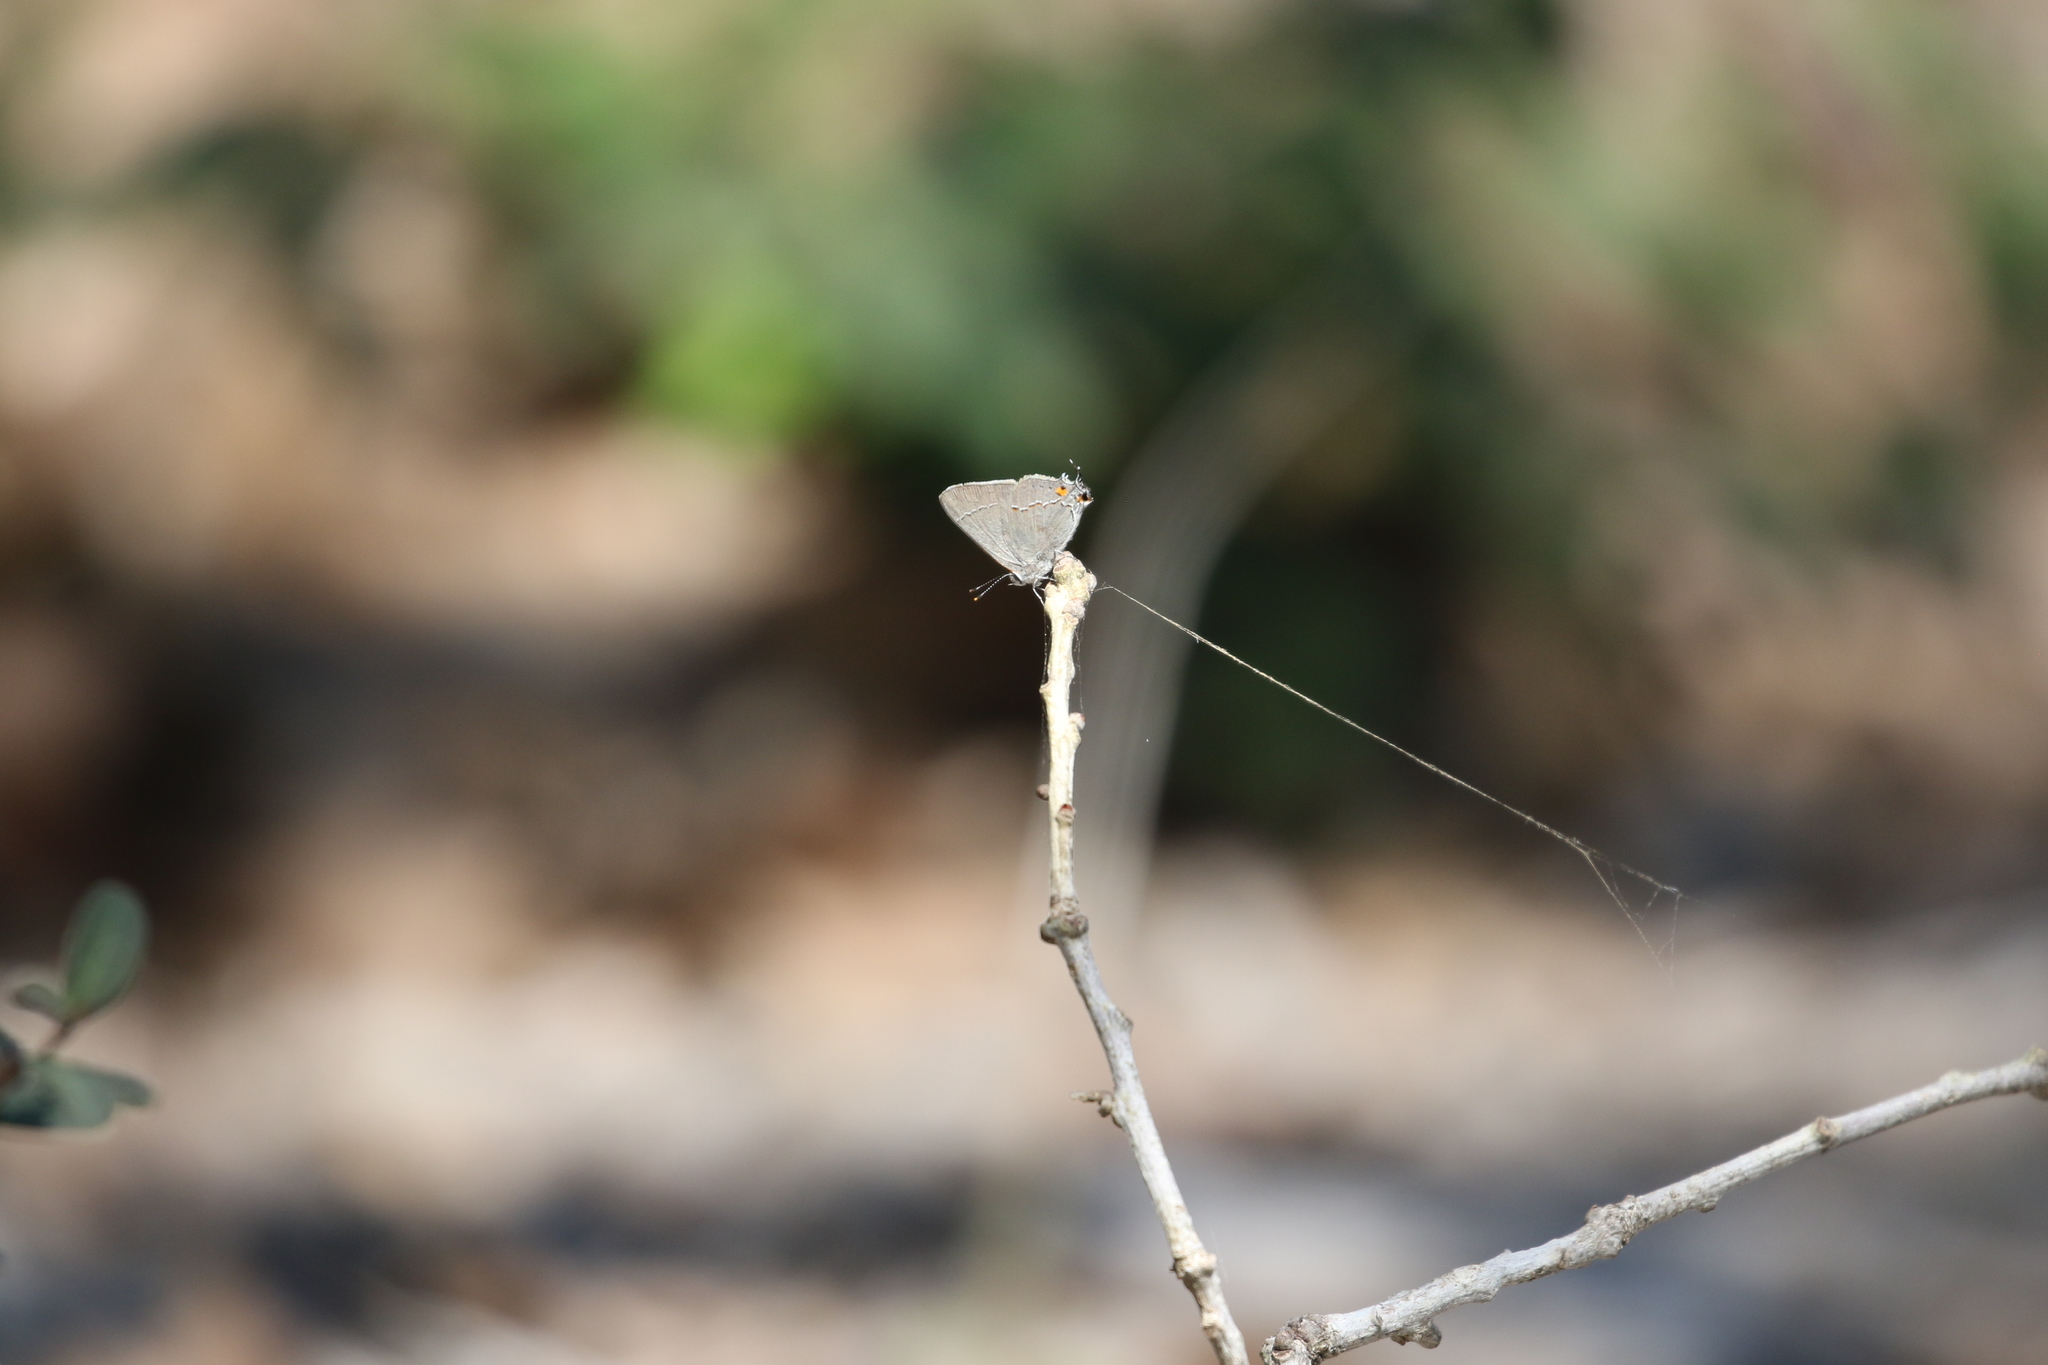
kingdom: Animalia
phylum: Arthropoda
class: Insecta
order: Lepidoptera
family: Lycaenidae
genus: Strymon
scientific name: Strymon melinus
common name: Gray hairstreak
